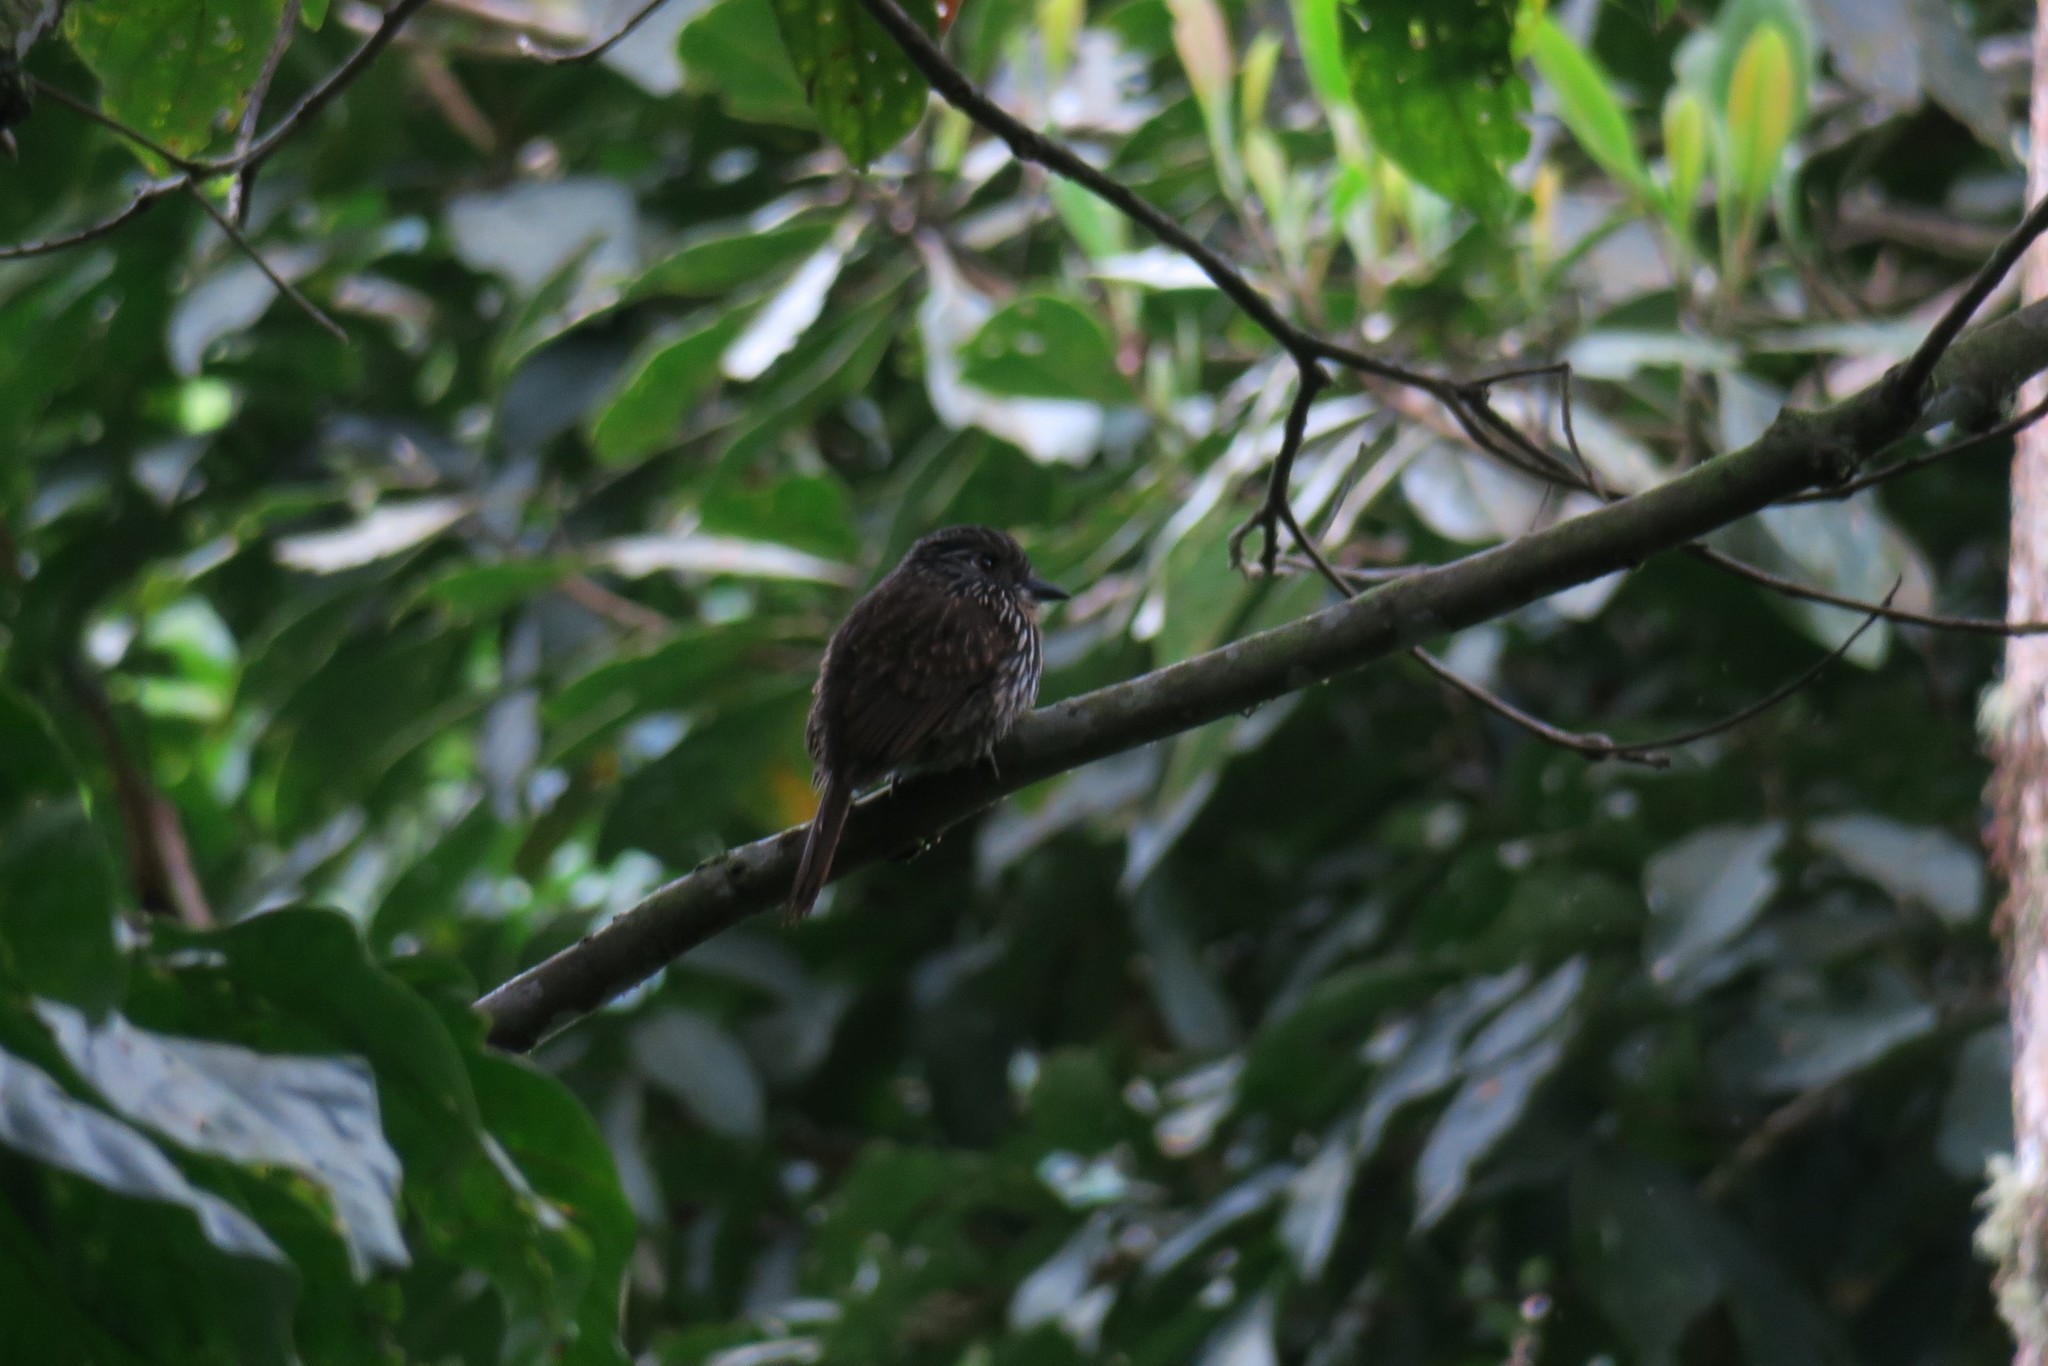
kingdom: Animalia
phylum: Chordata
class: Aves
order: Piciformes
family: Bucconidae
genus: Malacoptila
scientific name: Malacoptila fulvogularis
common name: Black-streaked puffbird
